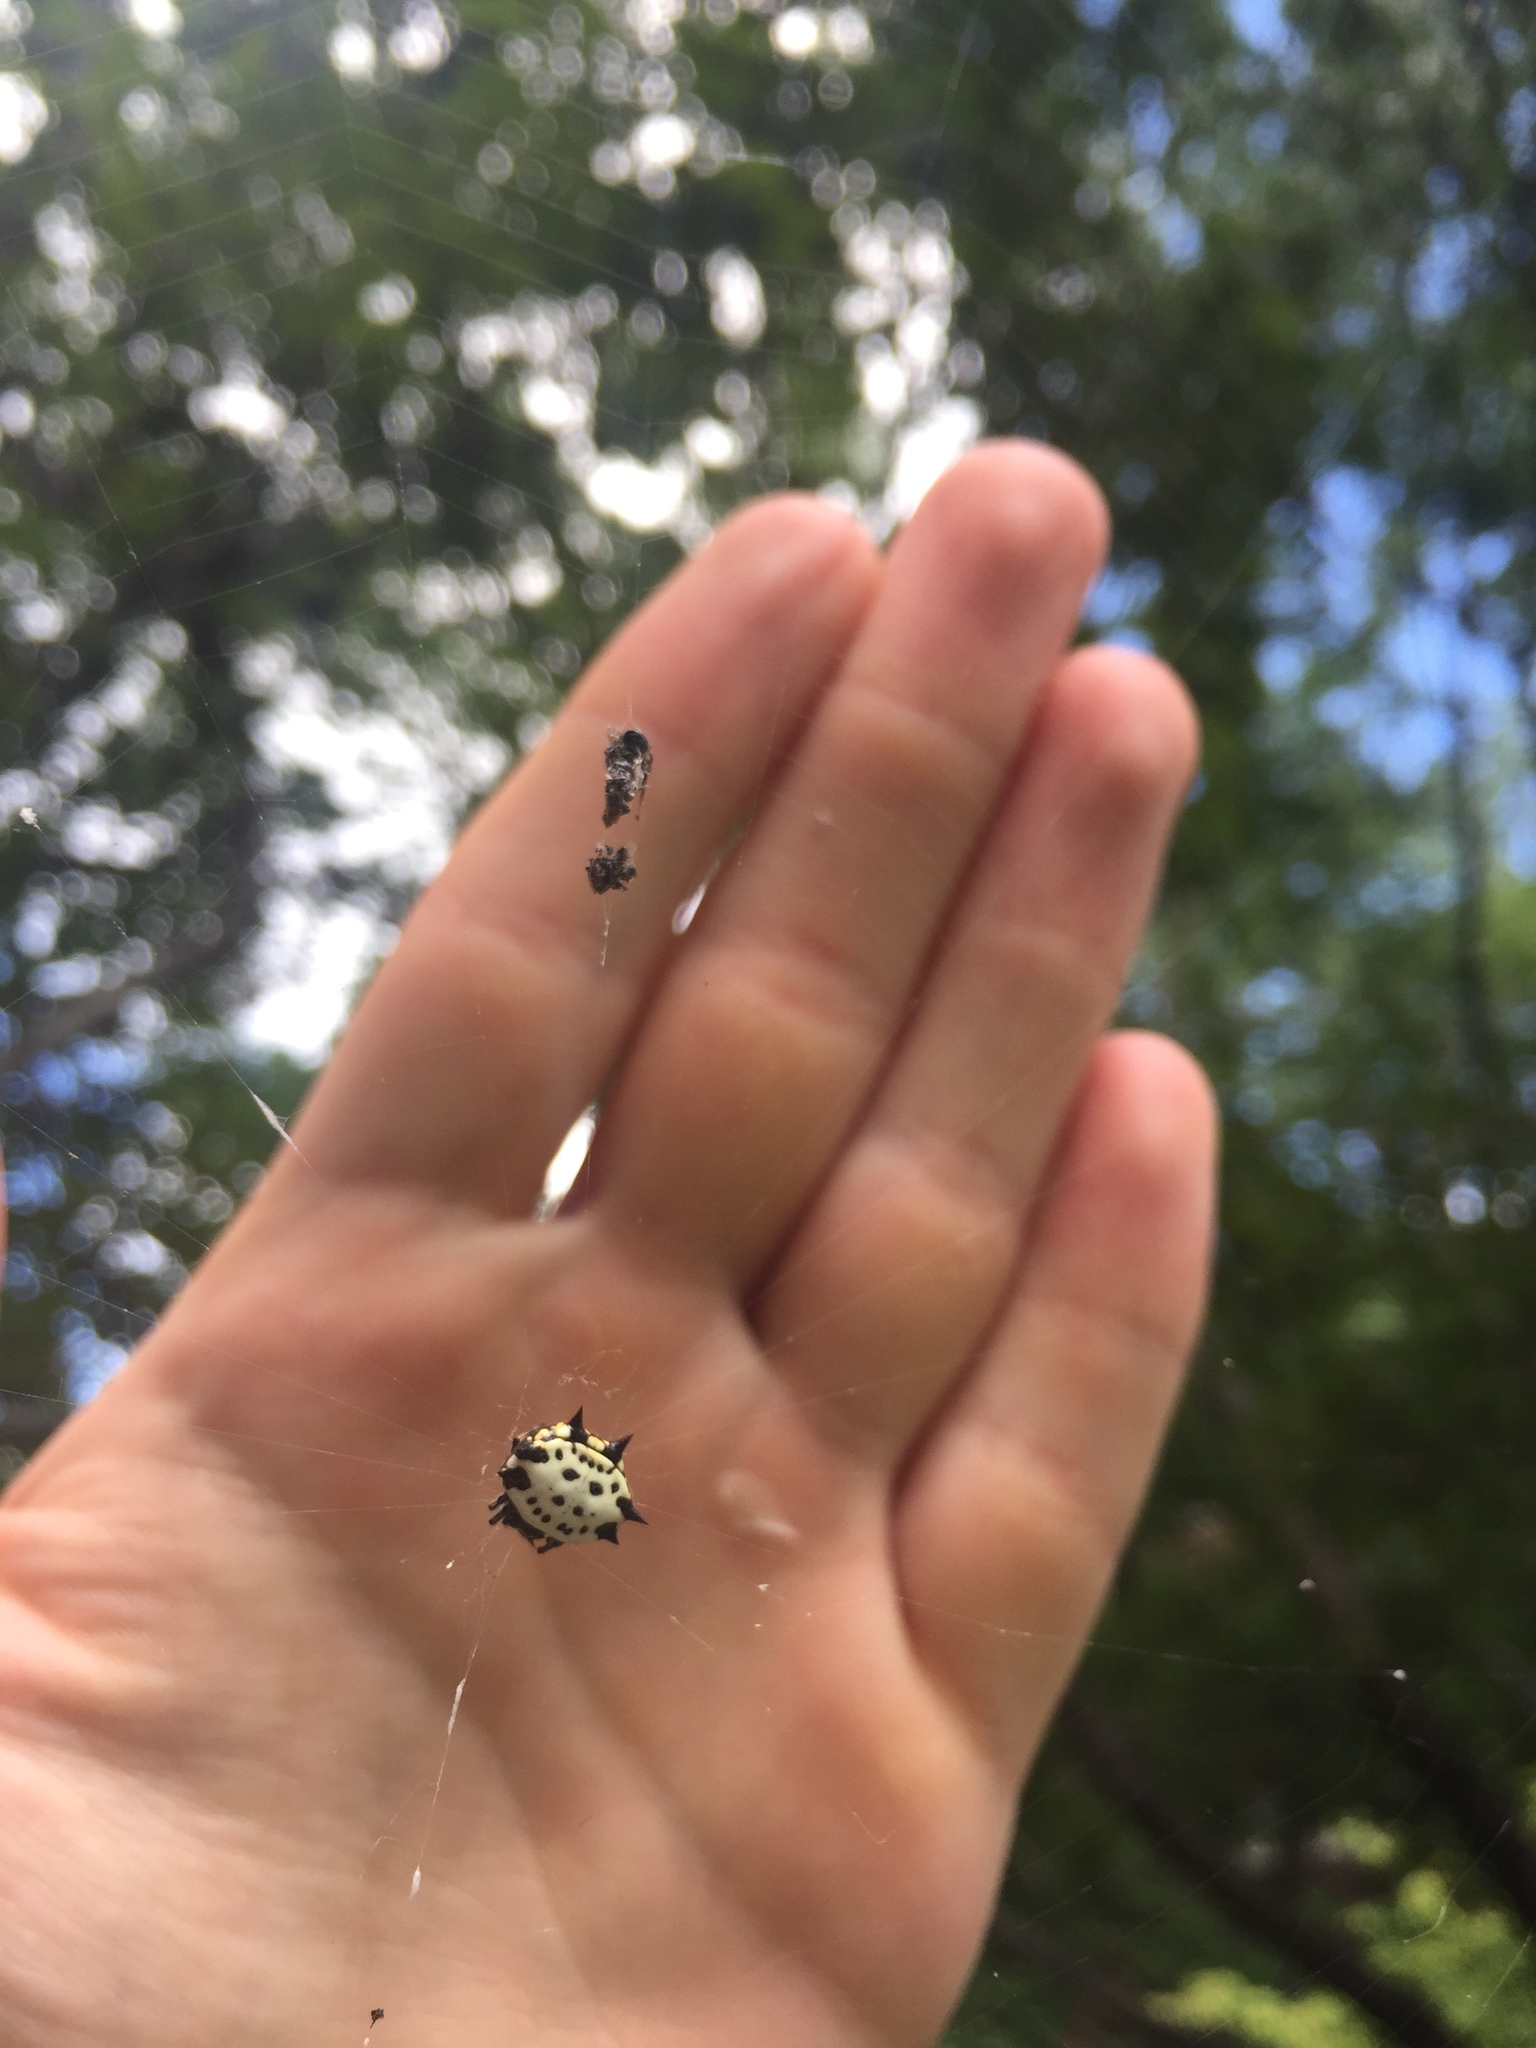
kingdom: Animalia
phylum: Arthropoda
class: Arachnida
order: Araneae
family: Araneidae
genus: Gasteracantha
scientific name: Gasteracantha cancriformis
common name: Orb weavers
